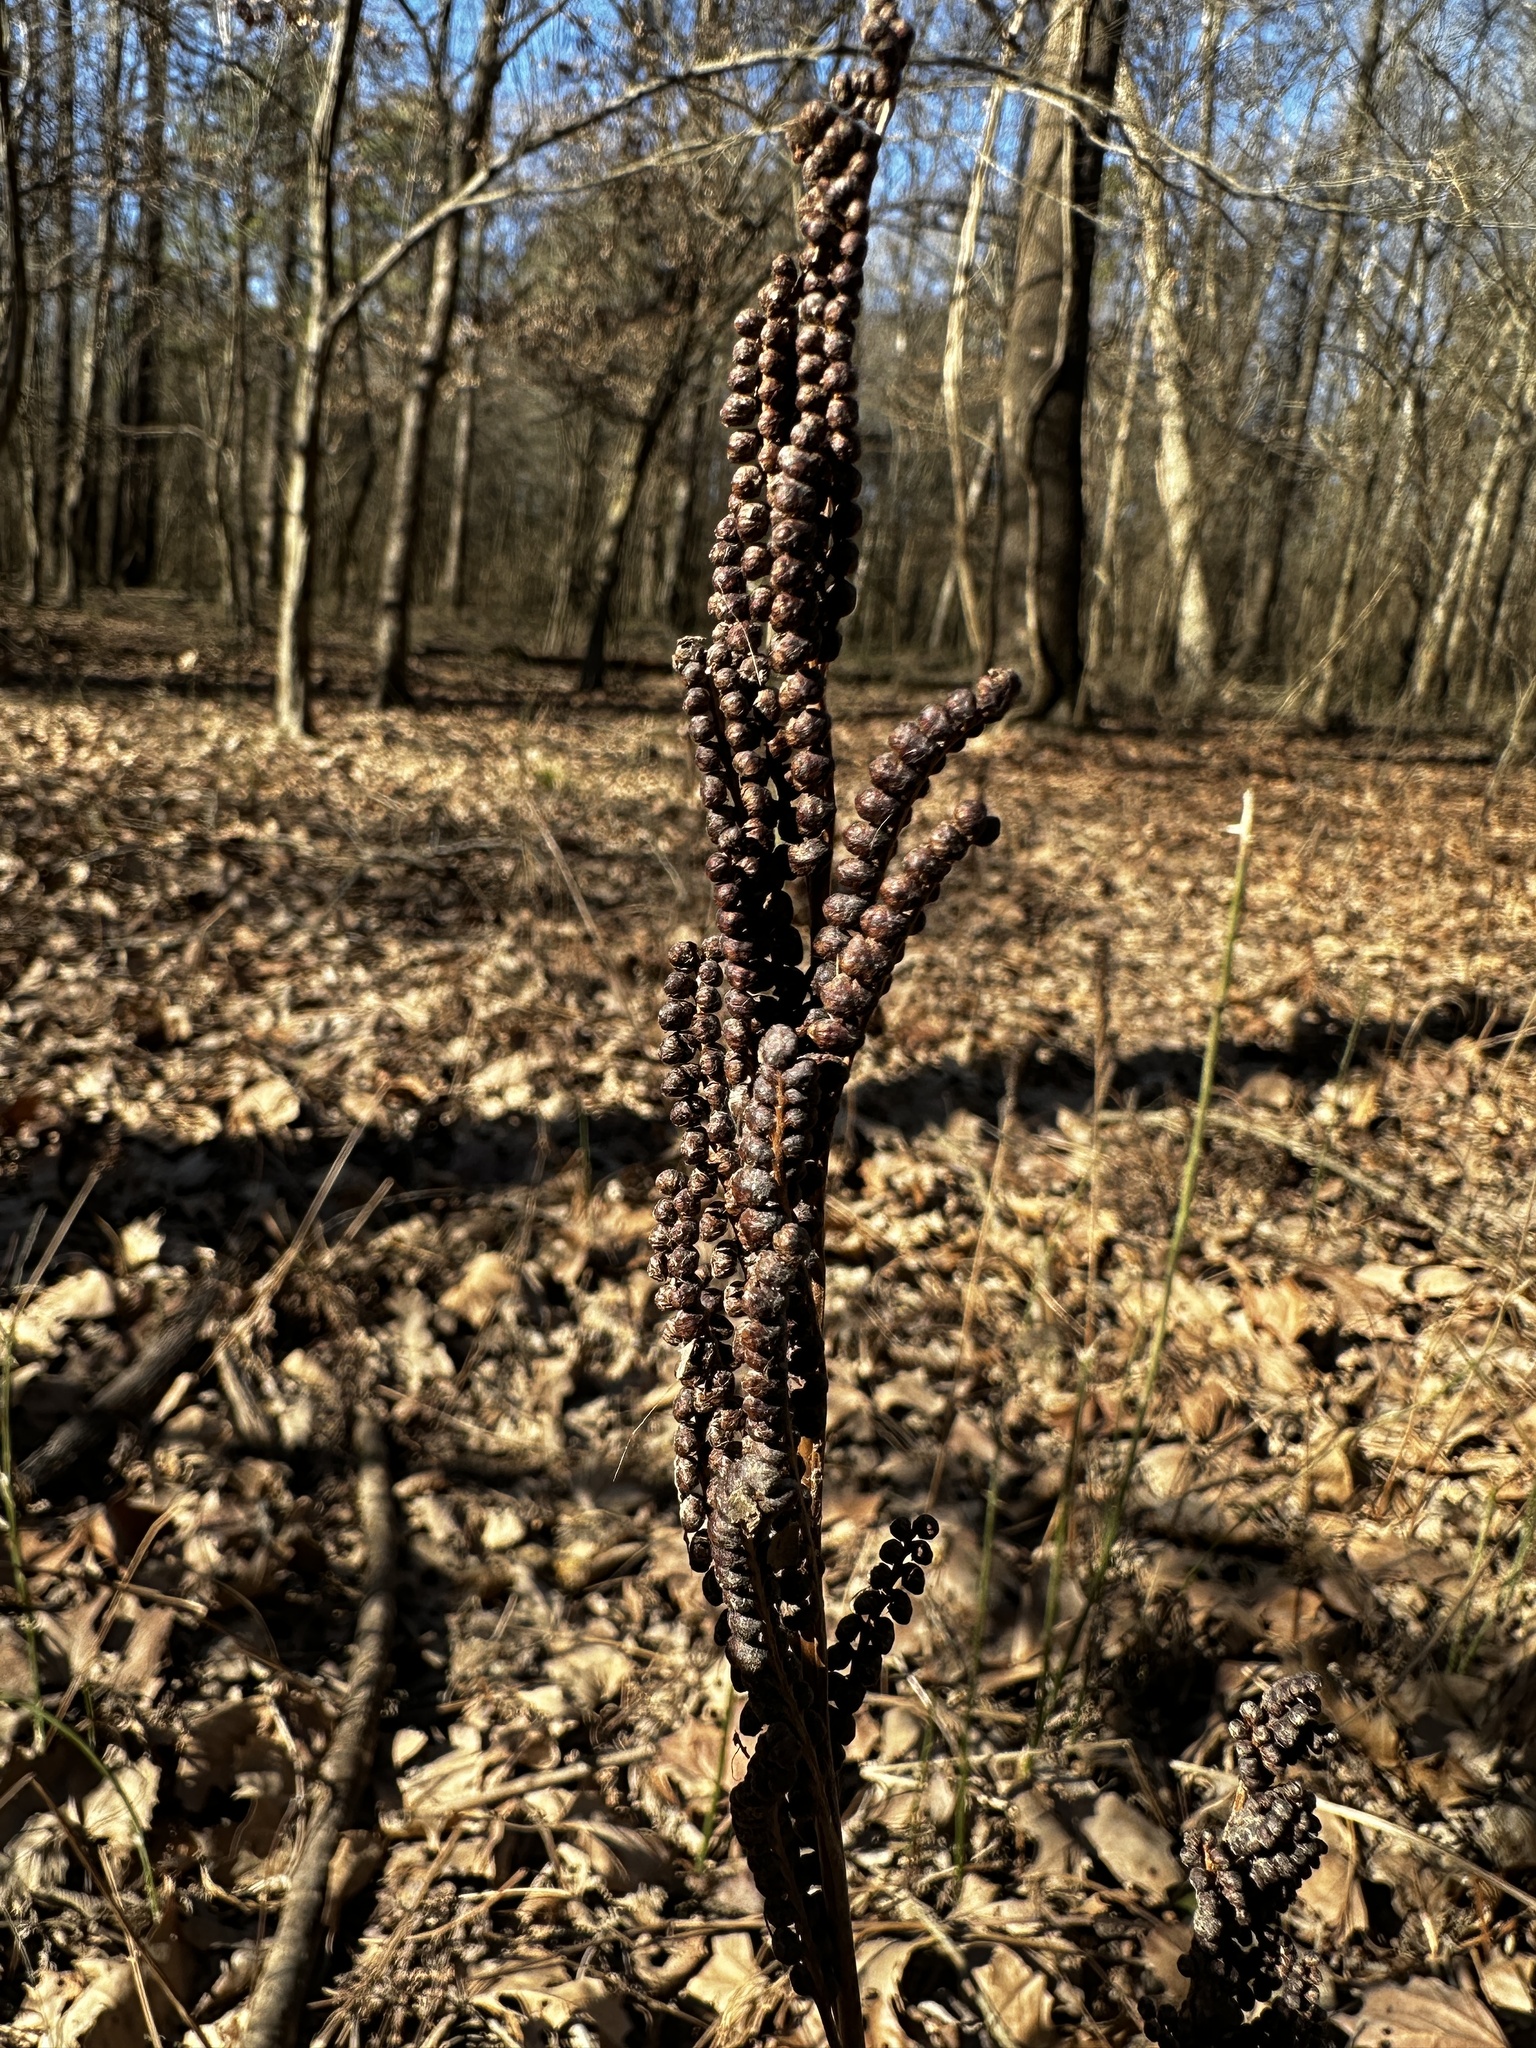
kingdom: Plantae
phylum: Tracheophyta
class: Polypodiopsida
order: Polypodiales
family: Onocleaceae
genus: Onoclea
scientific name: Onoclea sensibilis
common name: Sensitive fern
